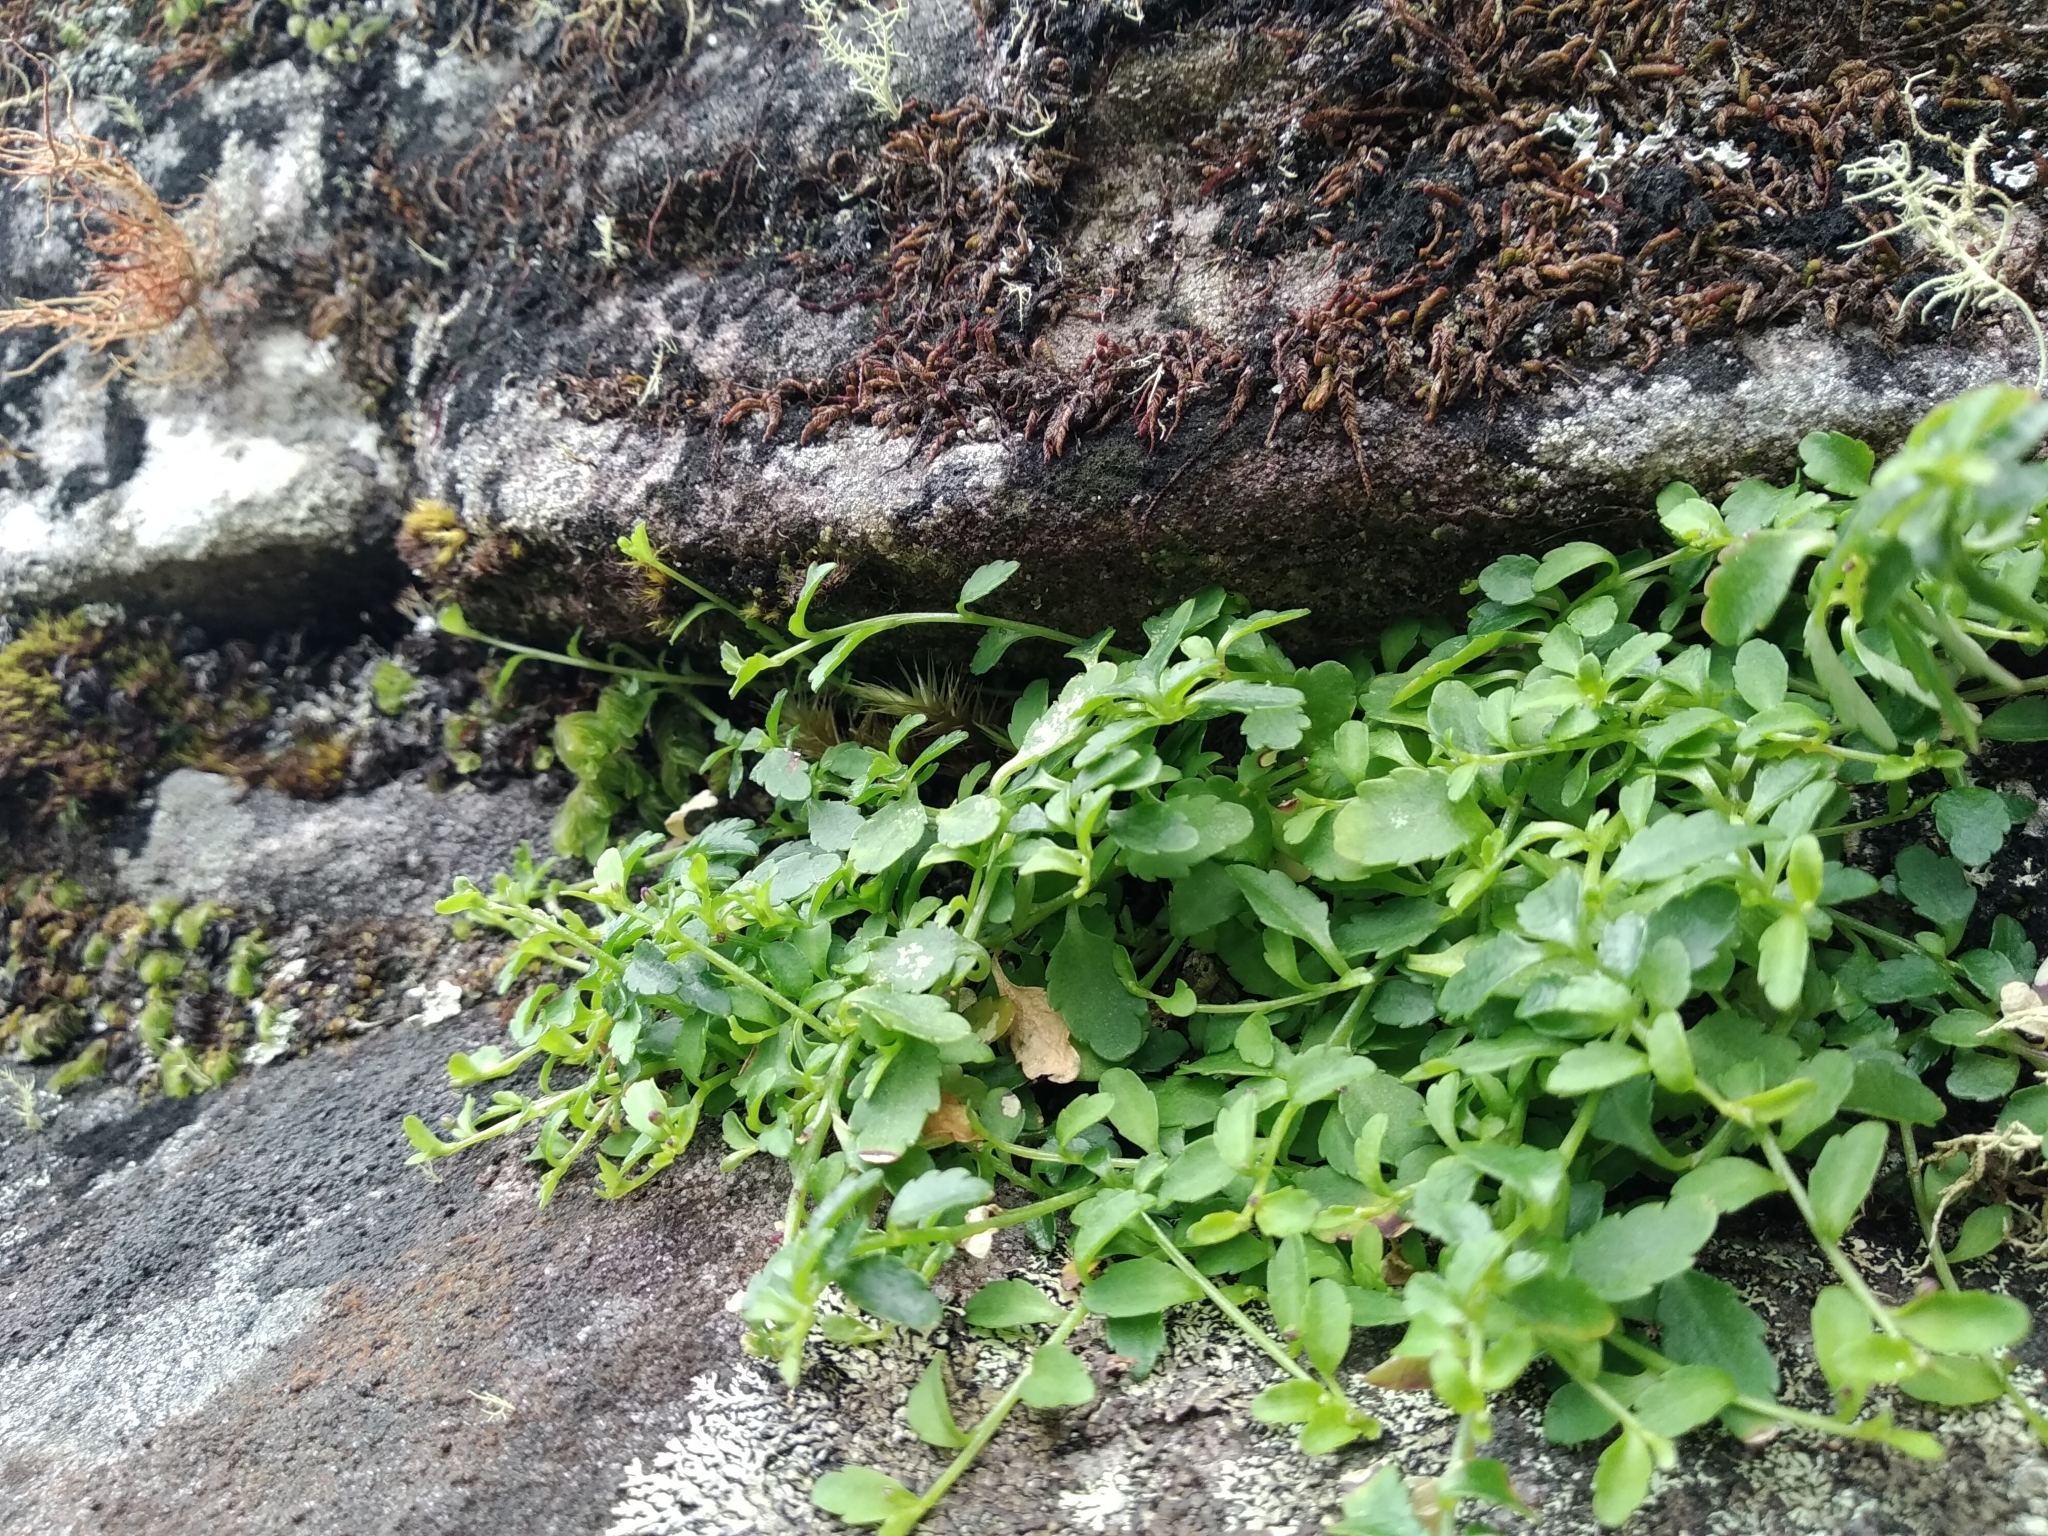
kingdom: Plantae
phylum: Tracheophyta
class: Magnoliopsida
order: Asterales
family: Campanulaceae
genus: Unigenes
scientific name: Unigenes humifusa
